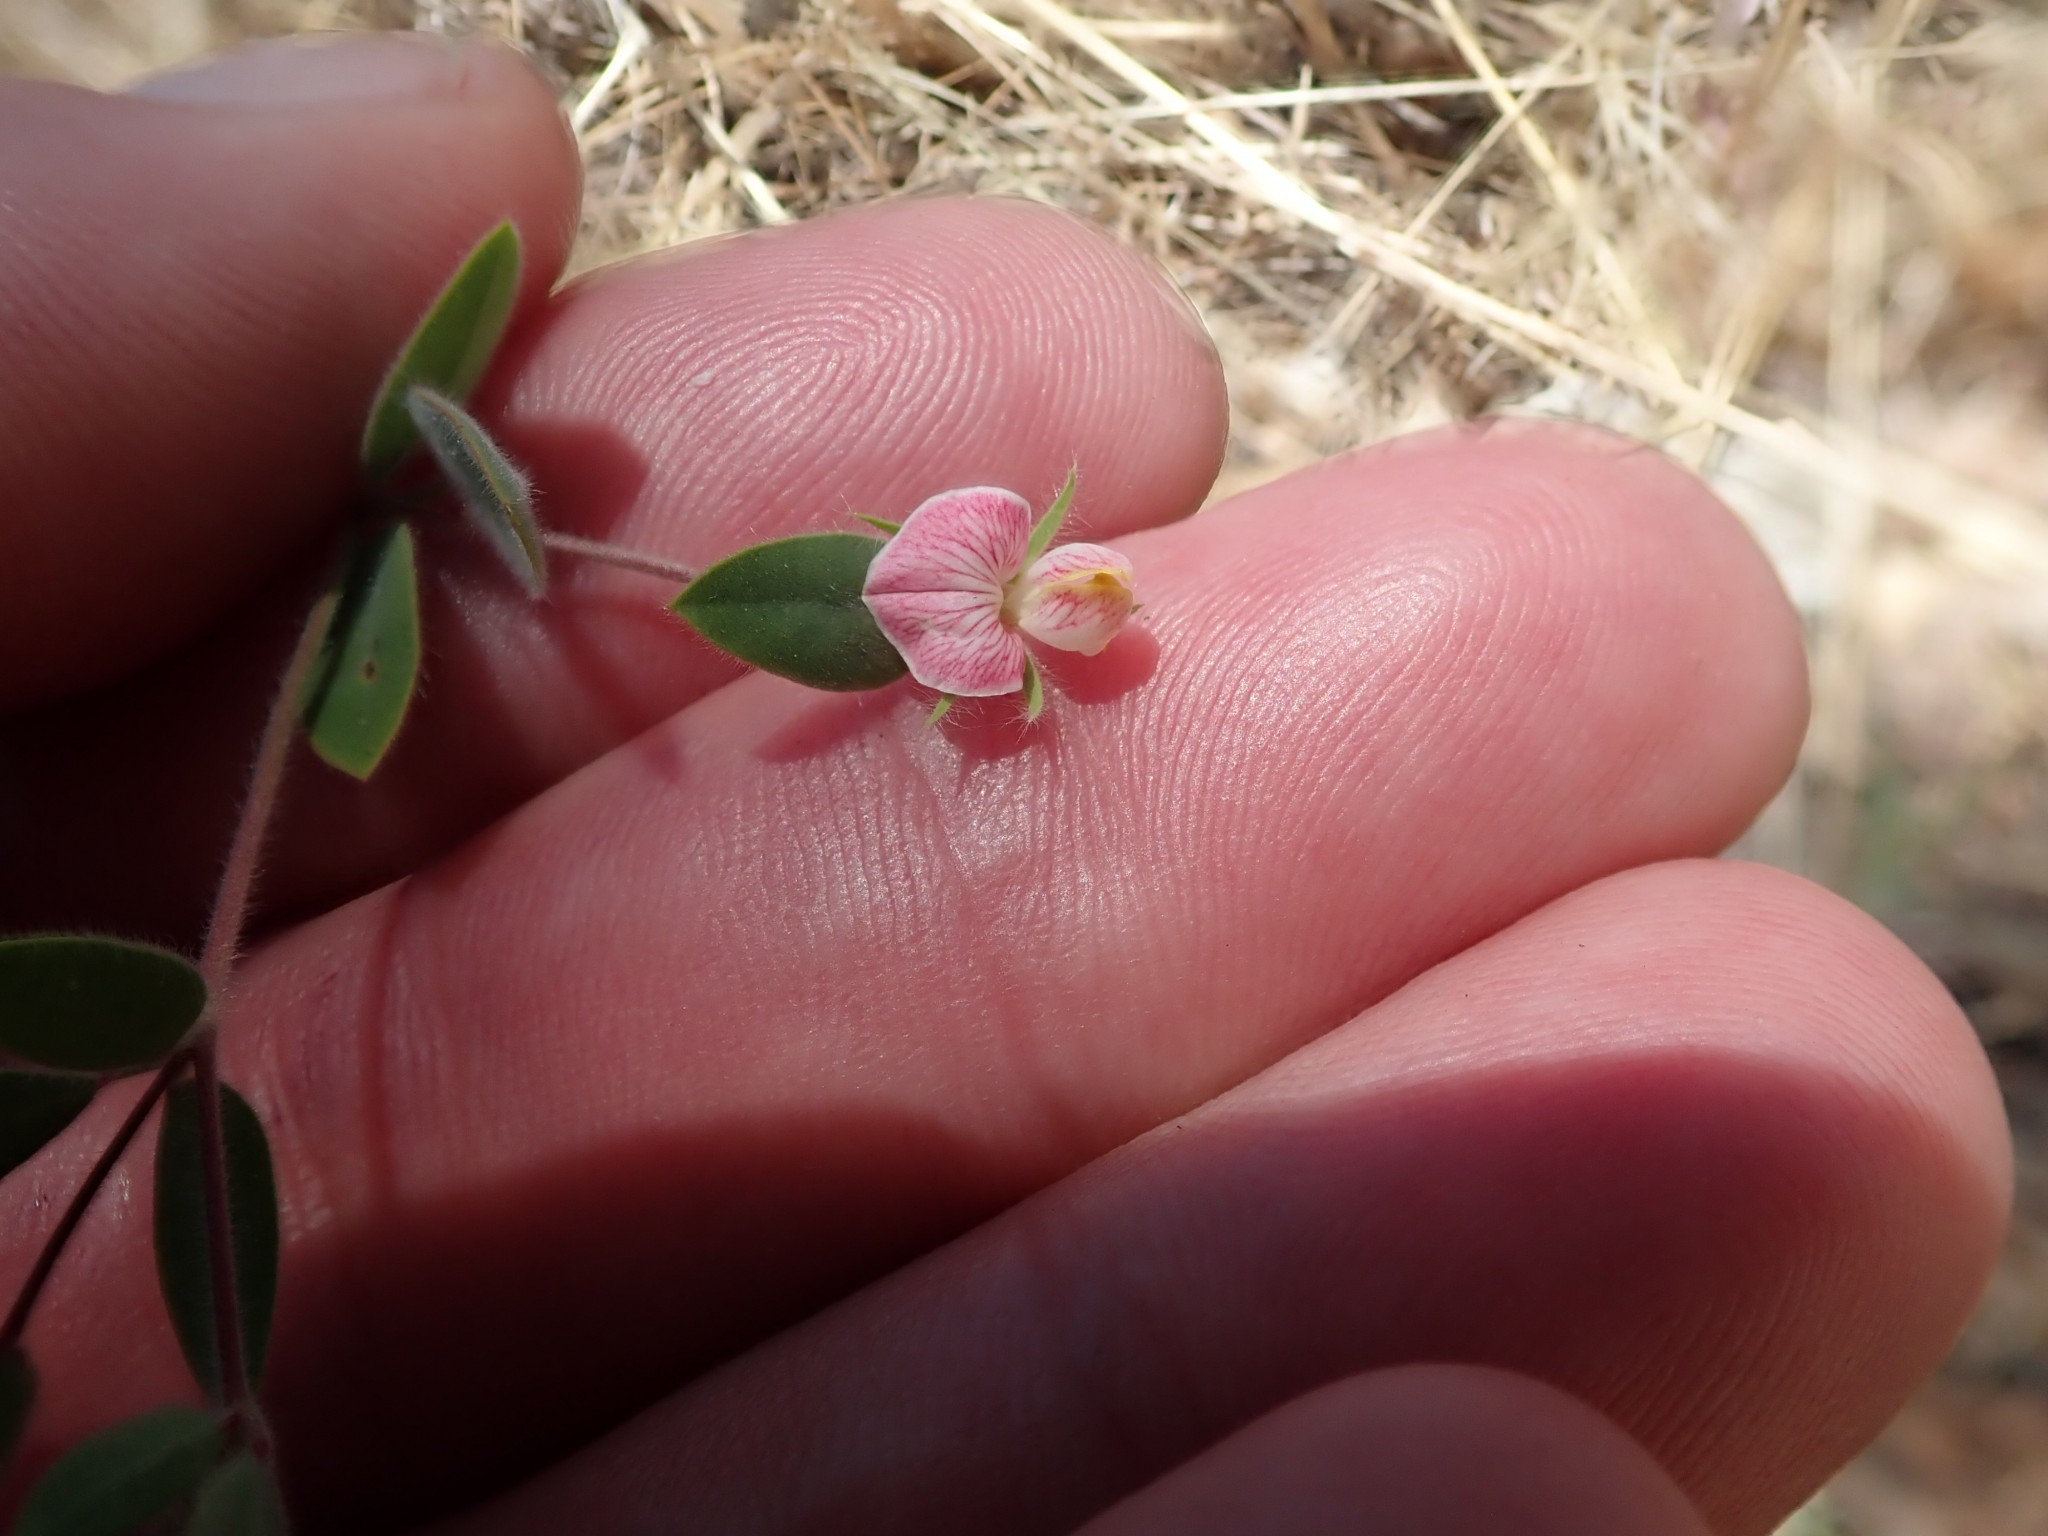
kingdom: Plantae
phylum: Tracheophyta
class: Magnoliopsida
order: Fabales
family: Fabaceae
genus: Acmispon
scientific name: Acmispon americanus
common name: American bird's-foot trefoil
